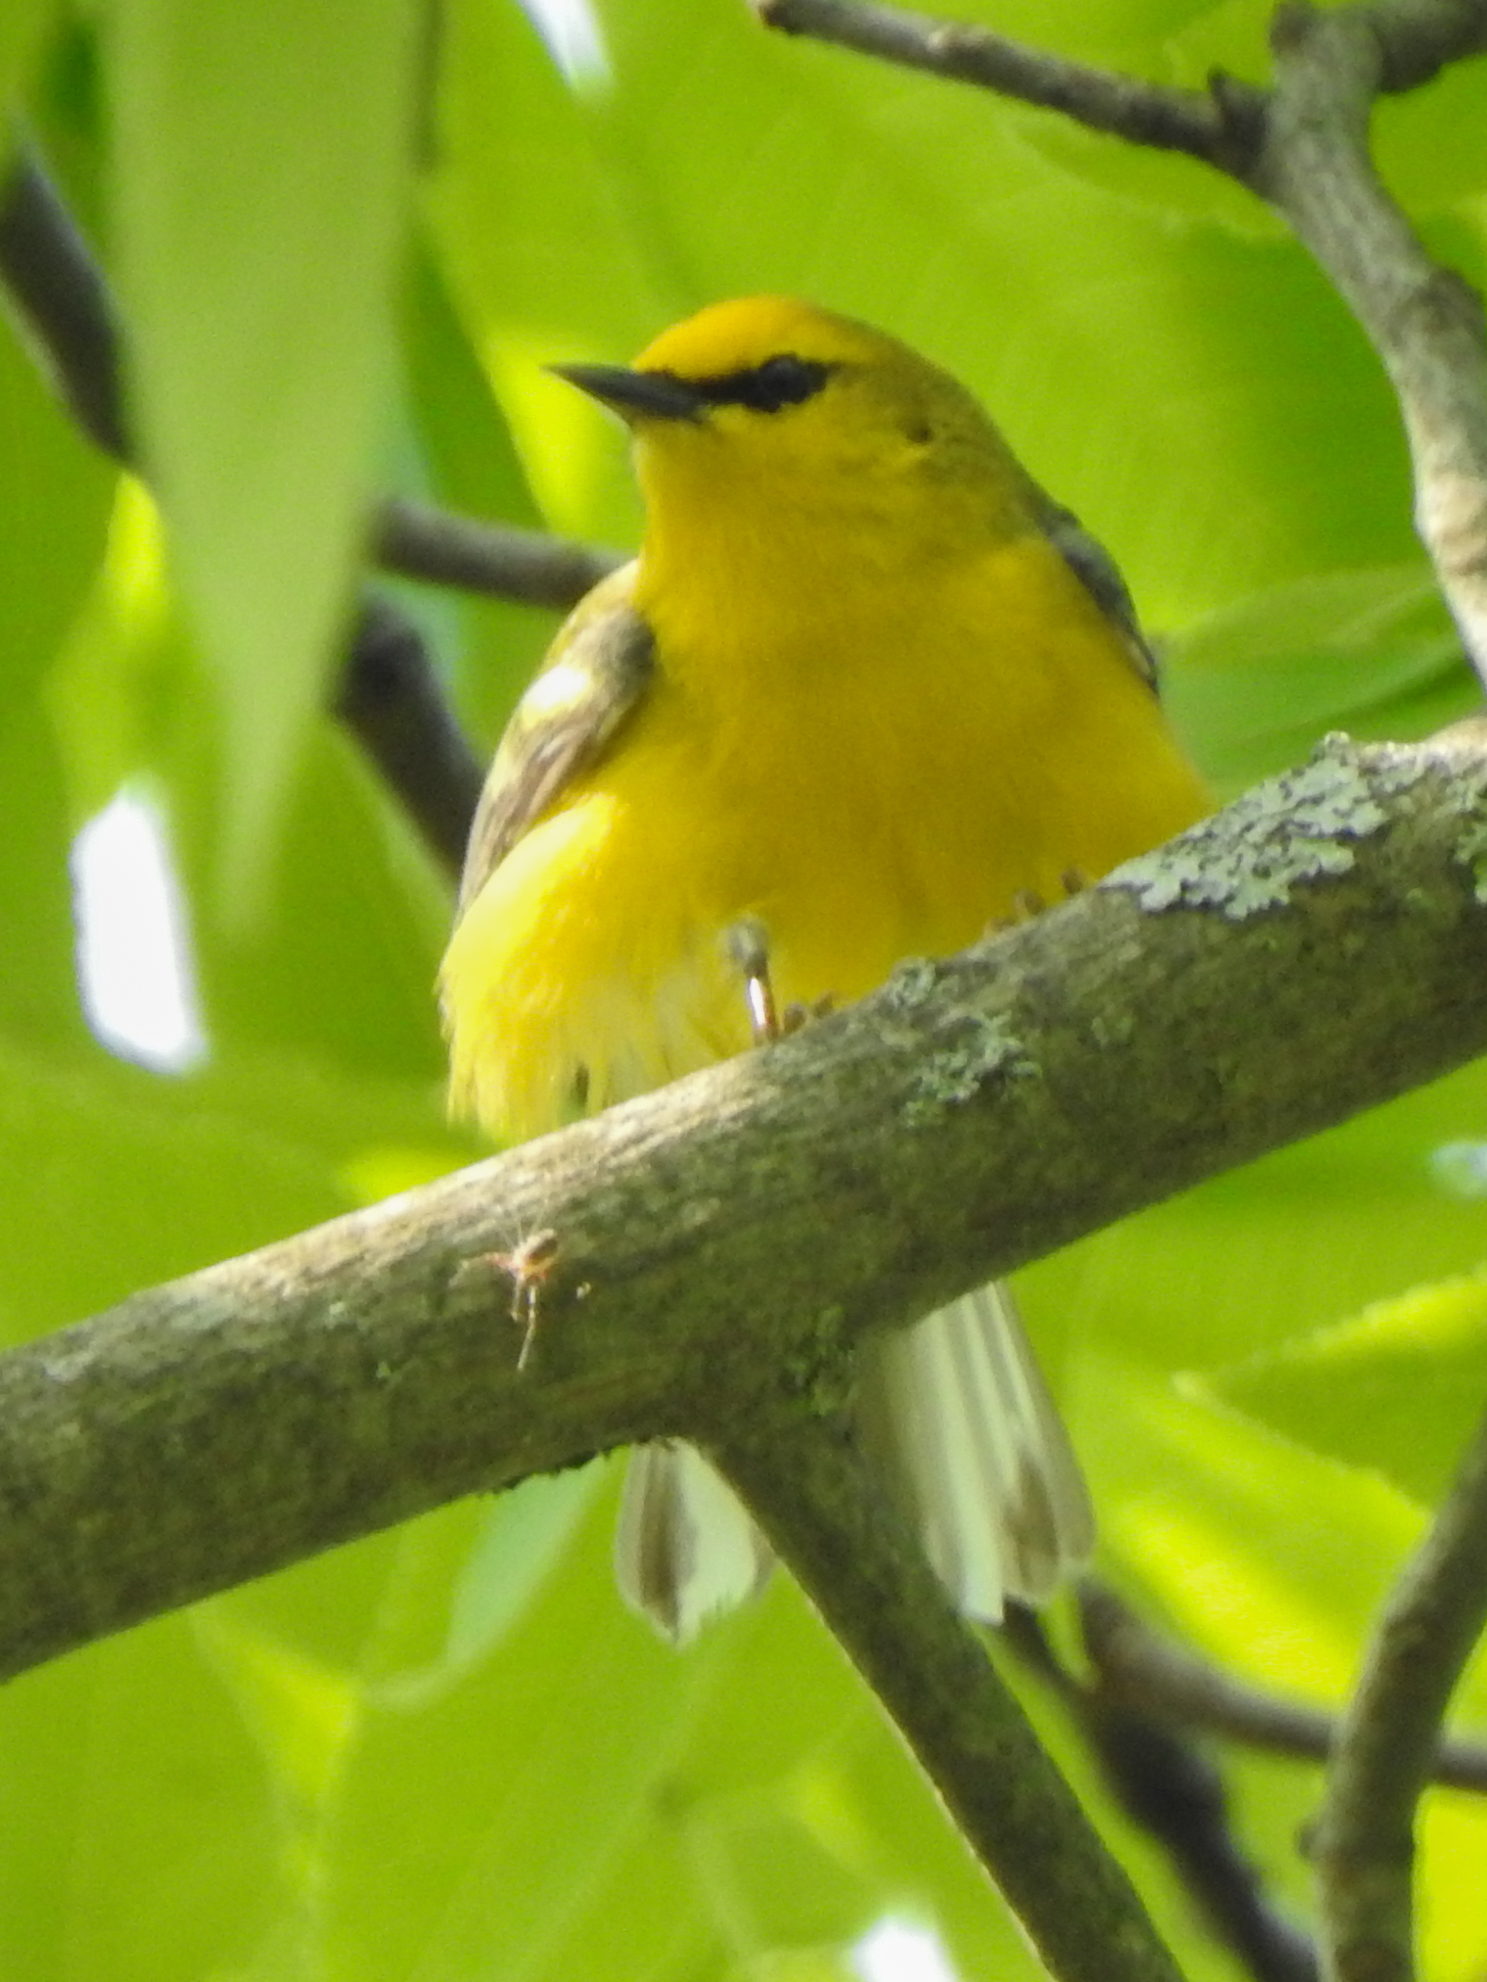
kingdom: Animalia
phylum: Chordata
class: Aves
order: Passeriformes
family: Parulidae
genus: Vermivora
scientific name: Vermivora cyanoptera
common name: Blue-winged warbler
